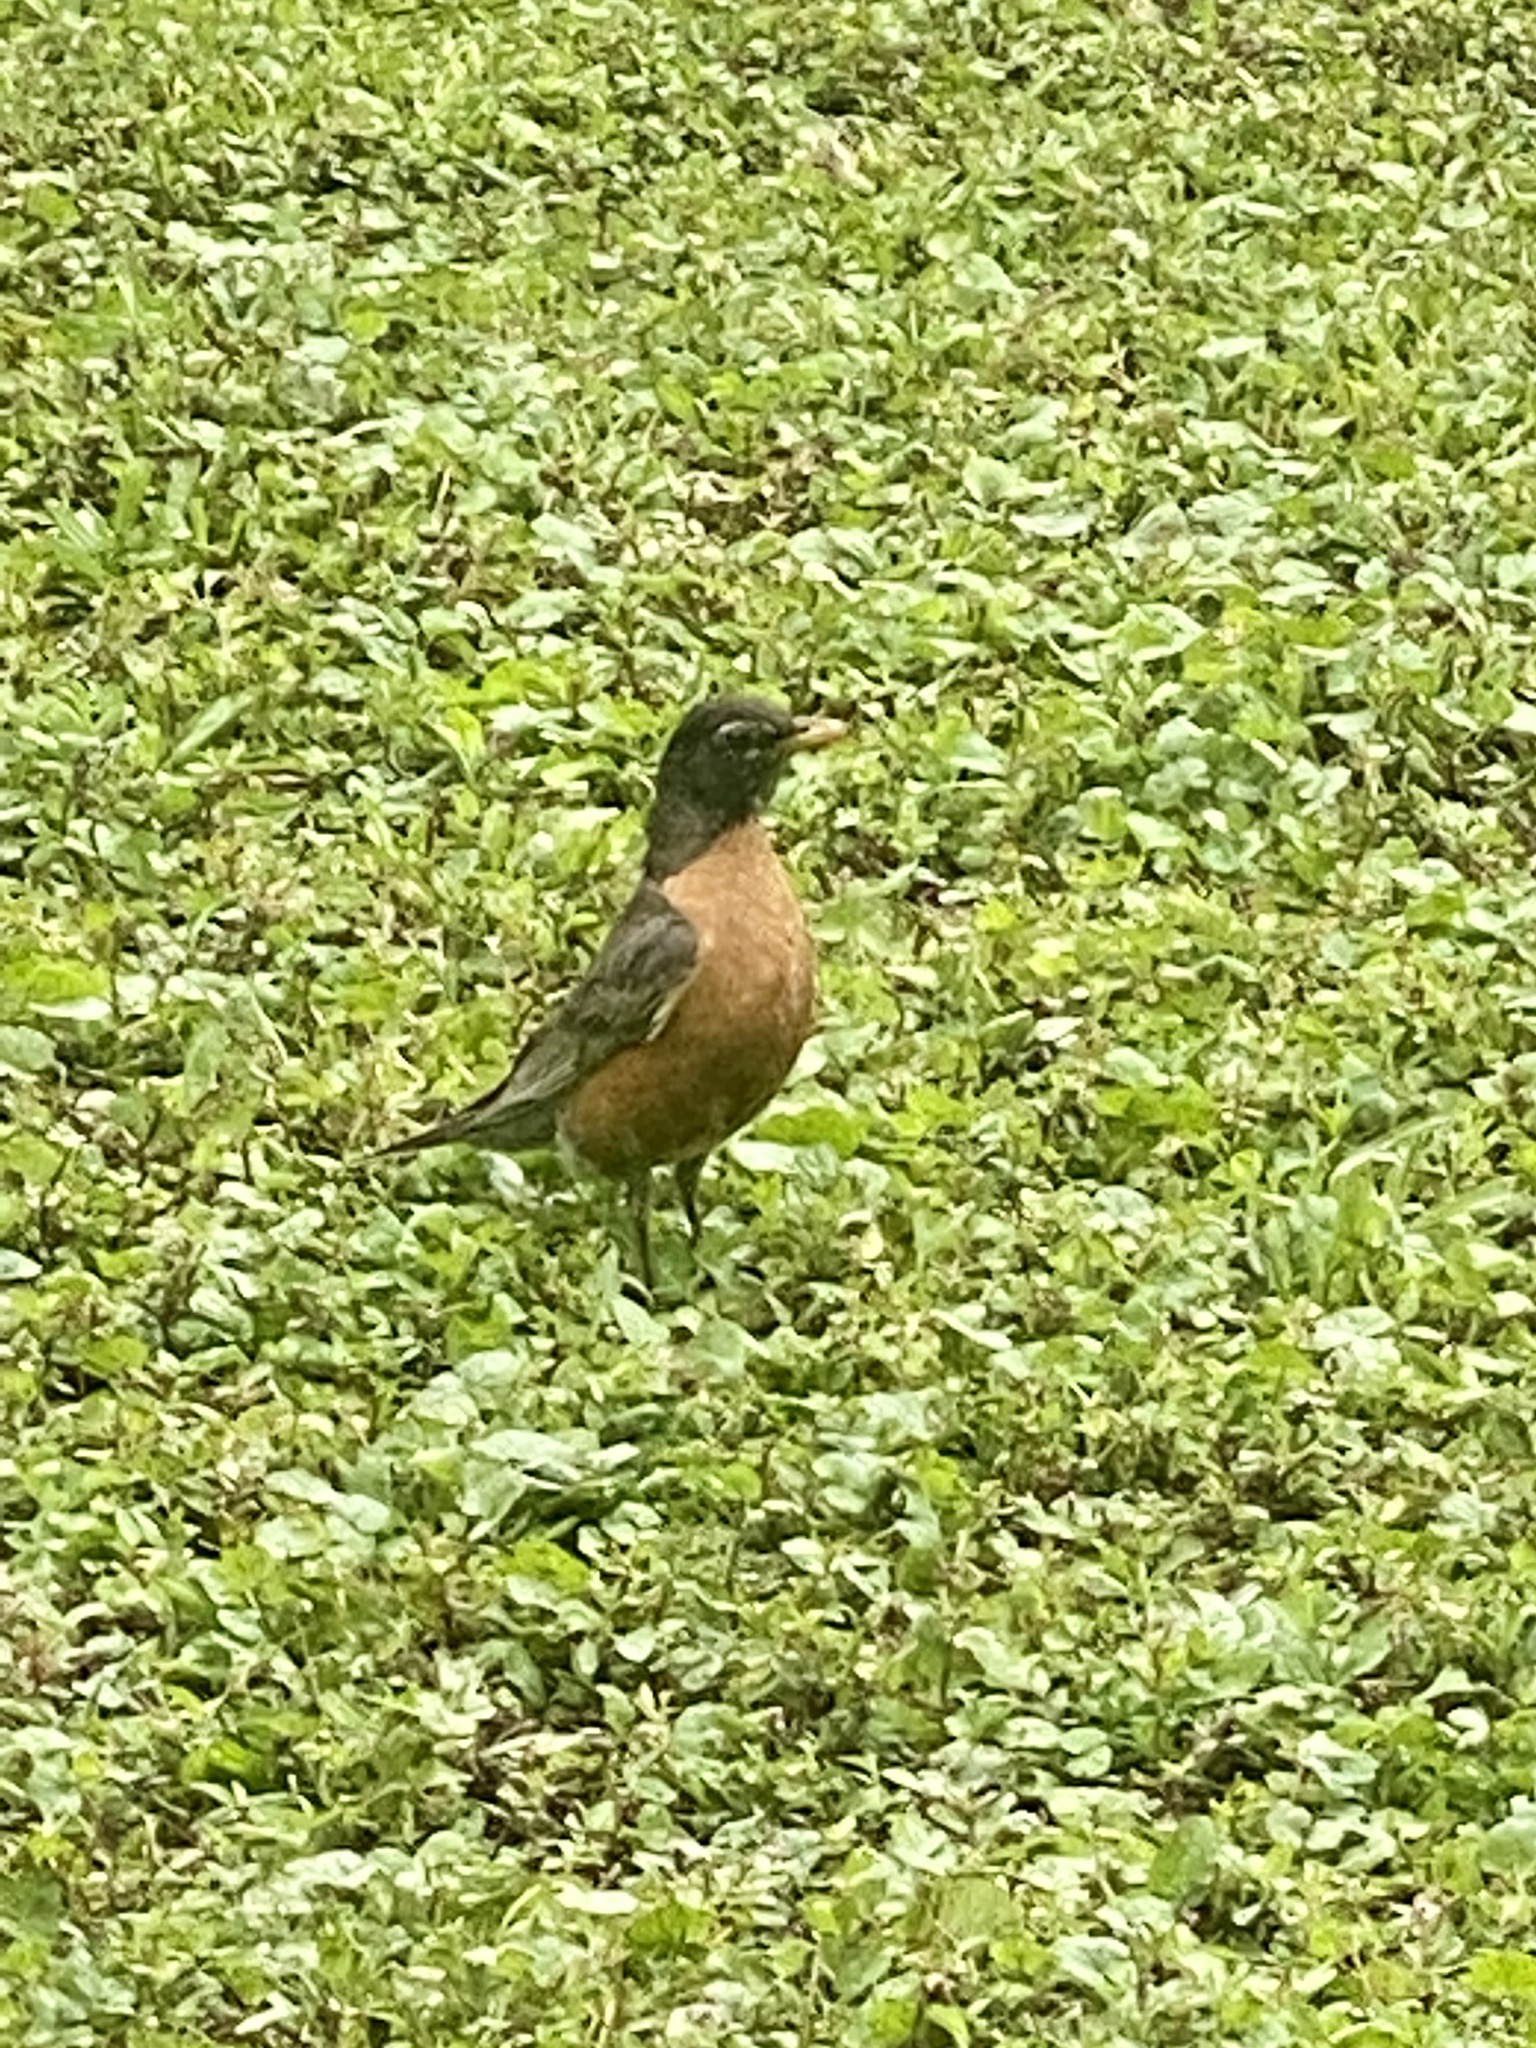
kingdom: Animalia
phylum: Chordata
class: Aves
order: Passeriformes
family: Turdidae
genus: Turdus
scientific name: Turdus migratorius
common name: American robin
